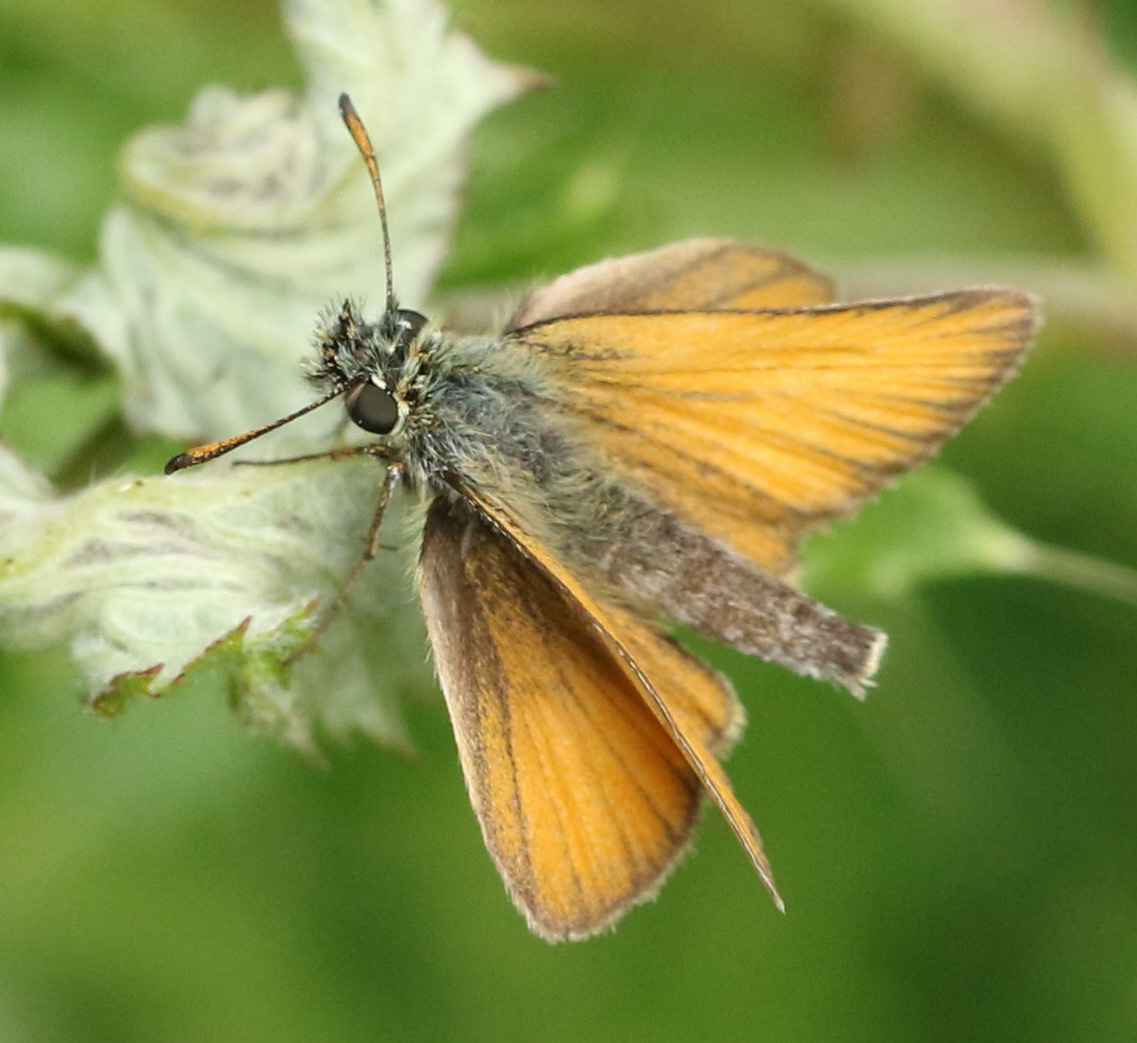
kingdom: Animalia
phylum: Arthropoda
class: Insecta
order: Lepidoptera
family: Hesperiidae
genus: Thymelicus
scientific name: Thymelicus lineola
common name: Essex skipper
